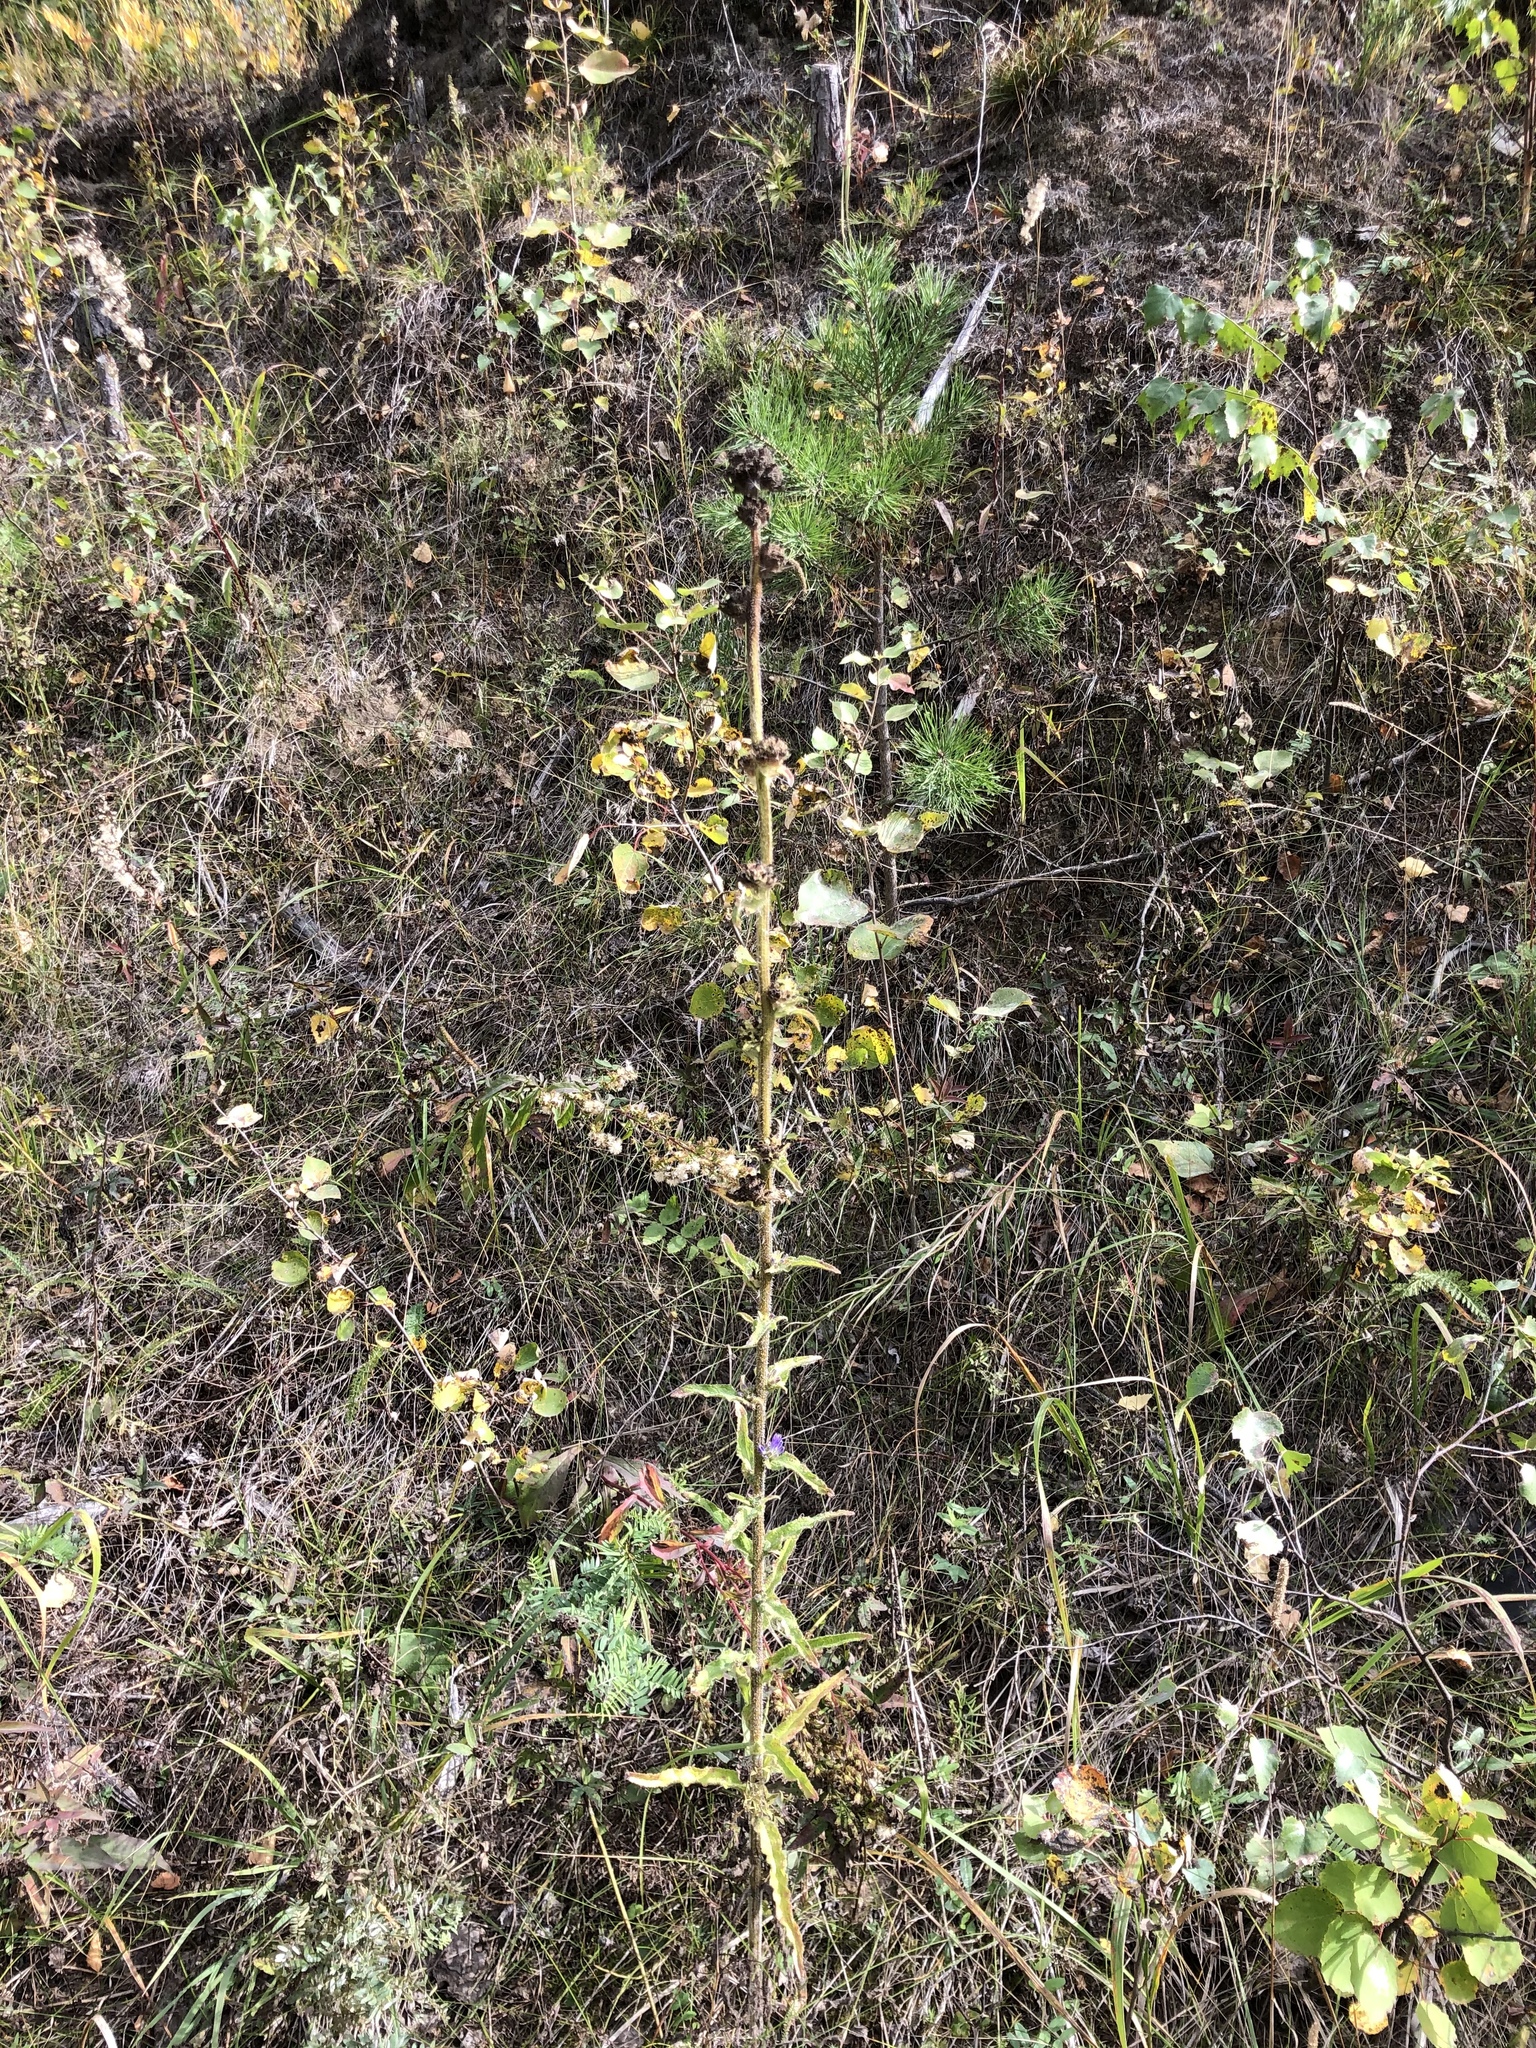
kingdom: Plantae
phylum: Tracheophyta
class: Magnoliopsida
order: Asterales
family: Campanulaceae
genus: Campanula
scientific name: Campanula cervicaria
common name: Bristly bellflower
